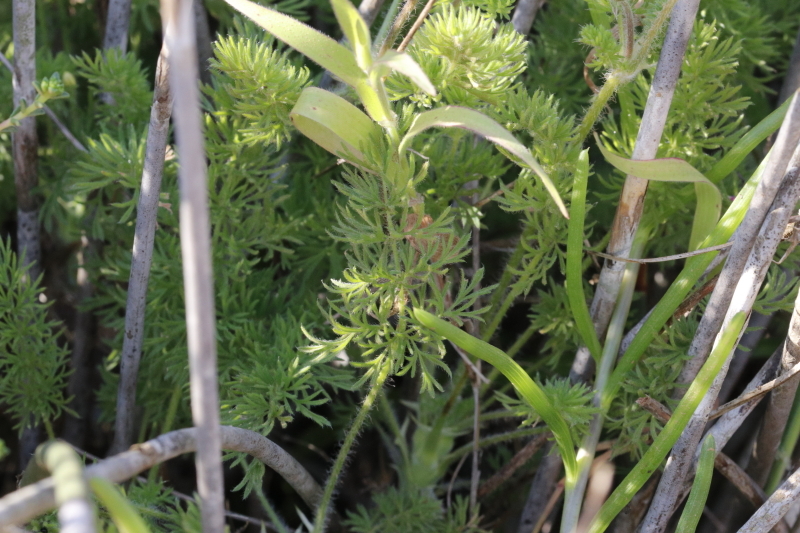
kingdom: Plantae
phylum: Tracheophyta
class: Magnoliopsida
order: Geraniales
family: Geraniaceae
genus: Pelargonium
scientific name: Pelargonium hirtum
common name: Fine-leaf pelargonium
